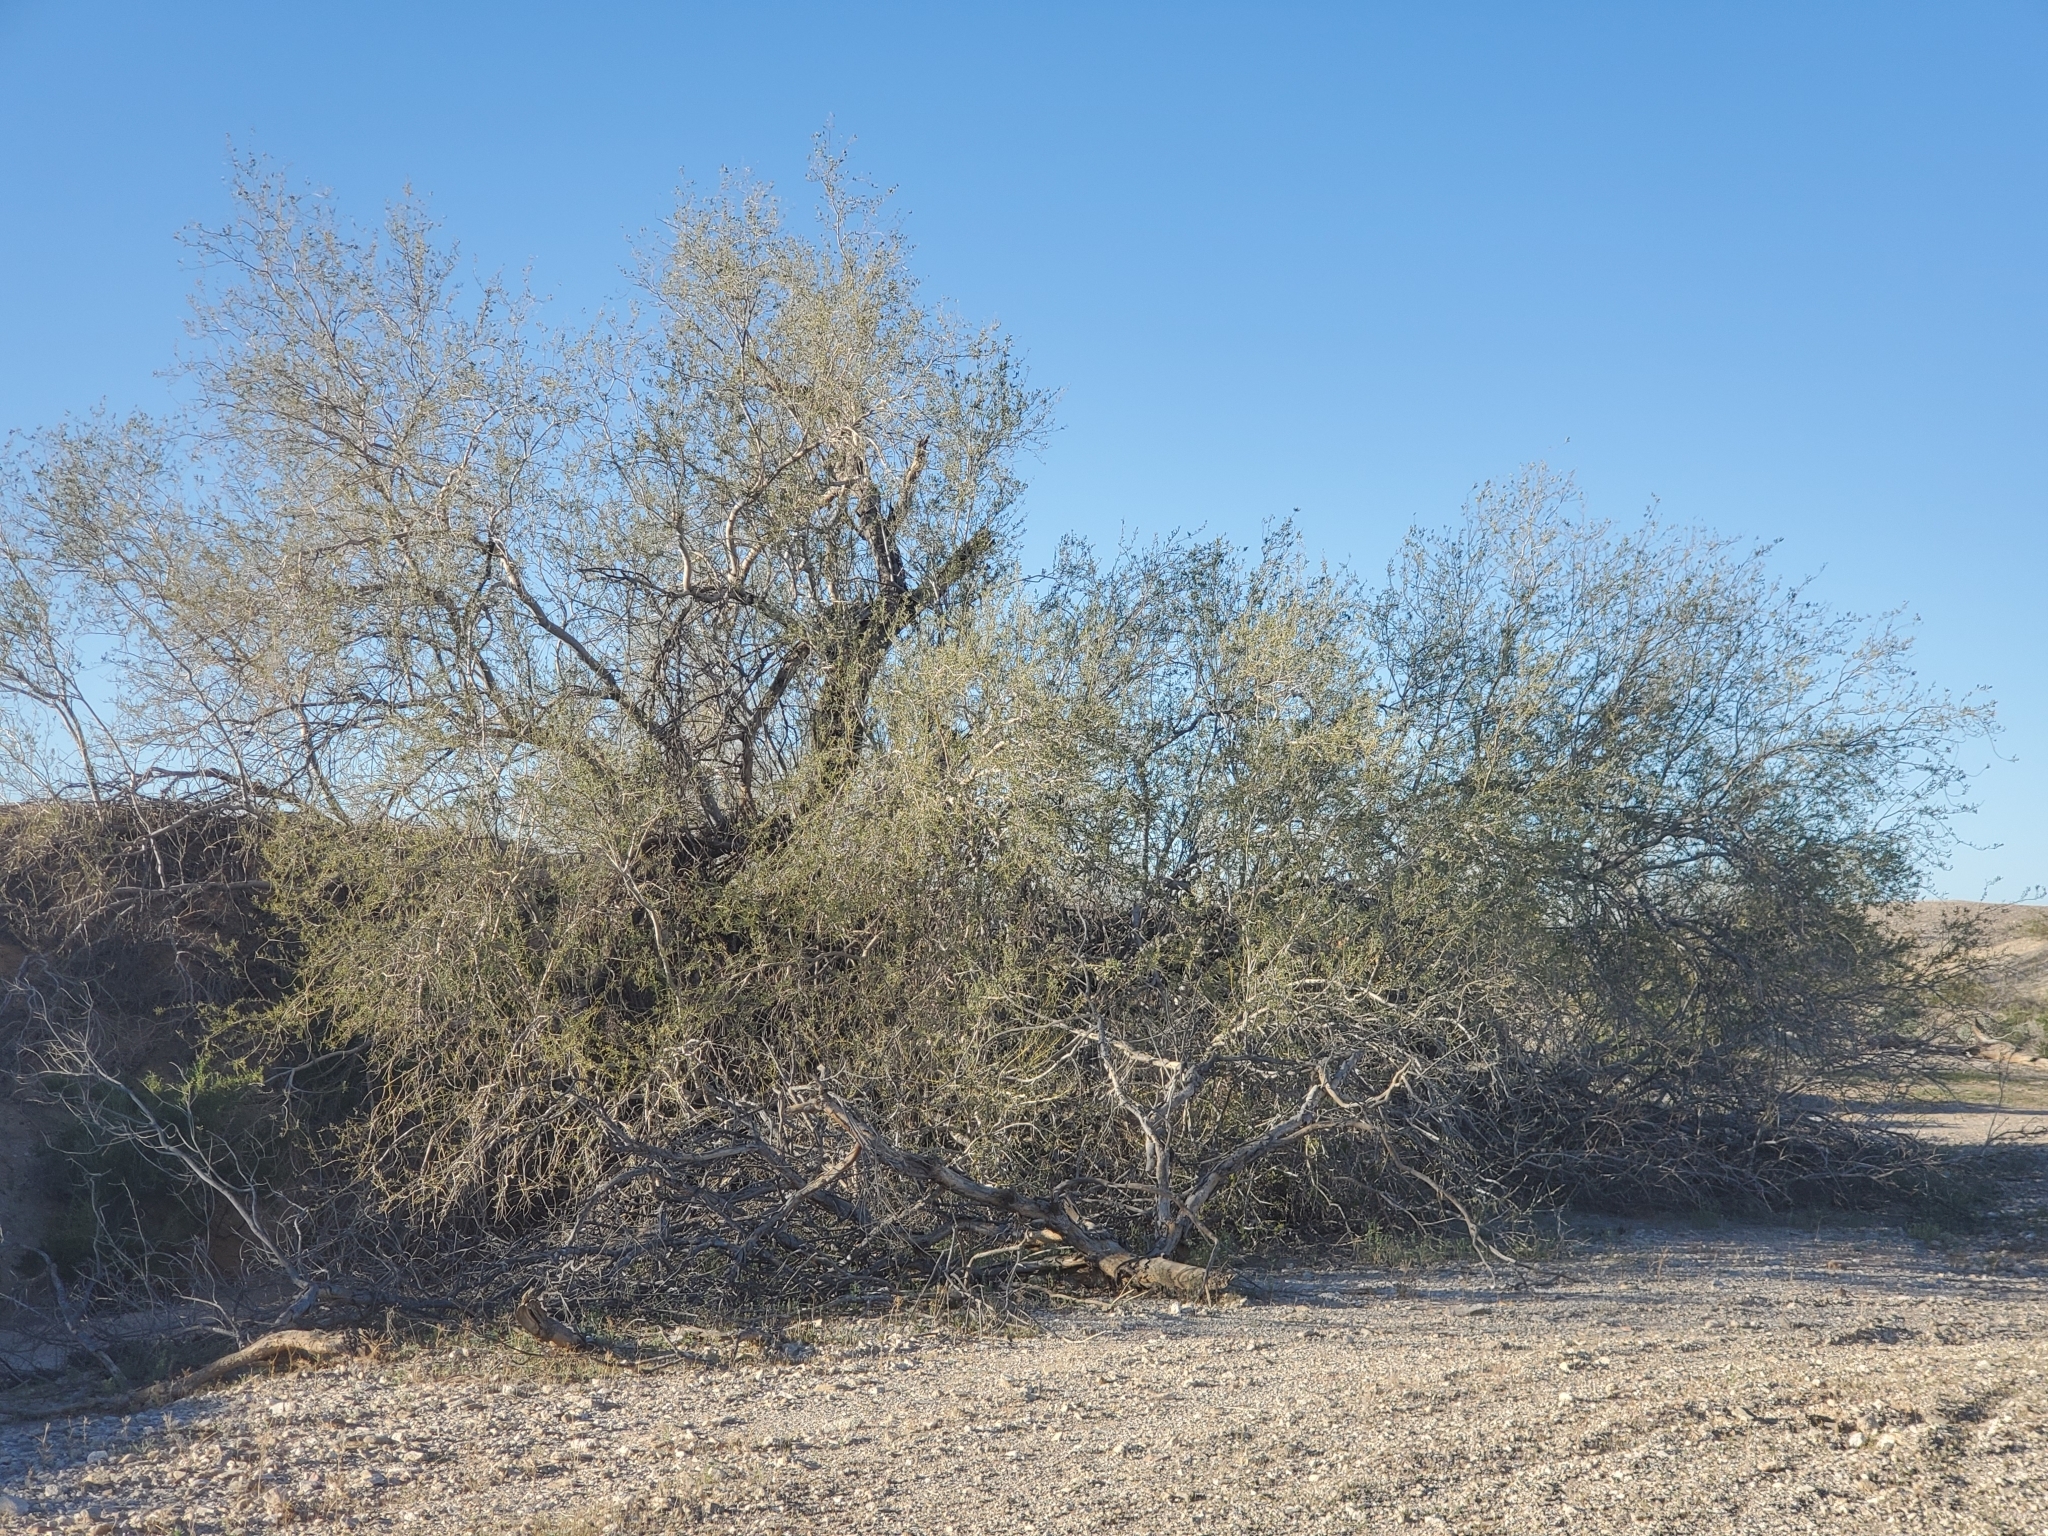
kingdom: Plantae
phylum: Tracheophyta
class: Magnoliopsida
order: Fabales
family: Fabaceae
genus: Olneya
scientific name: Olneya tesota
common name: Desert ironwood
